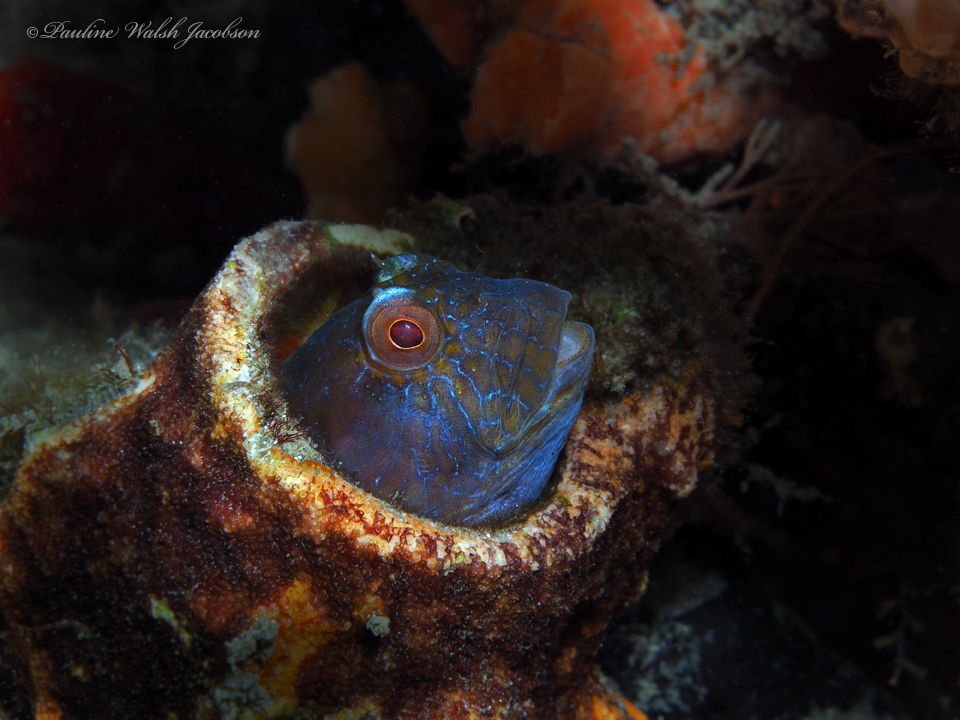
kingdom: Animalia
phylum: Chordata
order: Perciformes
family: Blenniidae
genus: Parablennius
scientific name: Parablennius marmoreus
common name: Seaweed blenny
